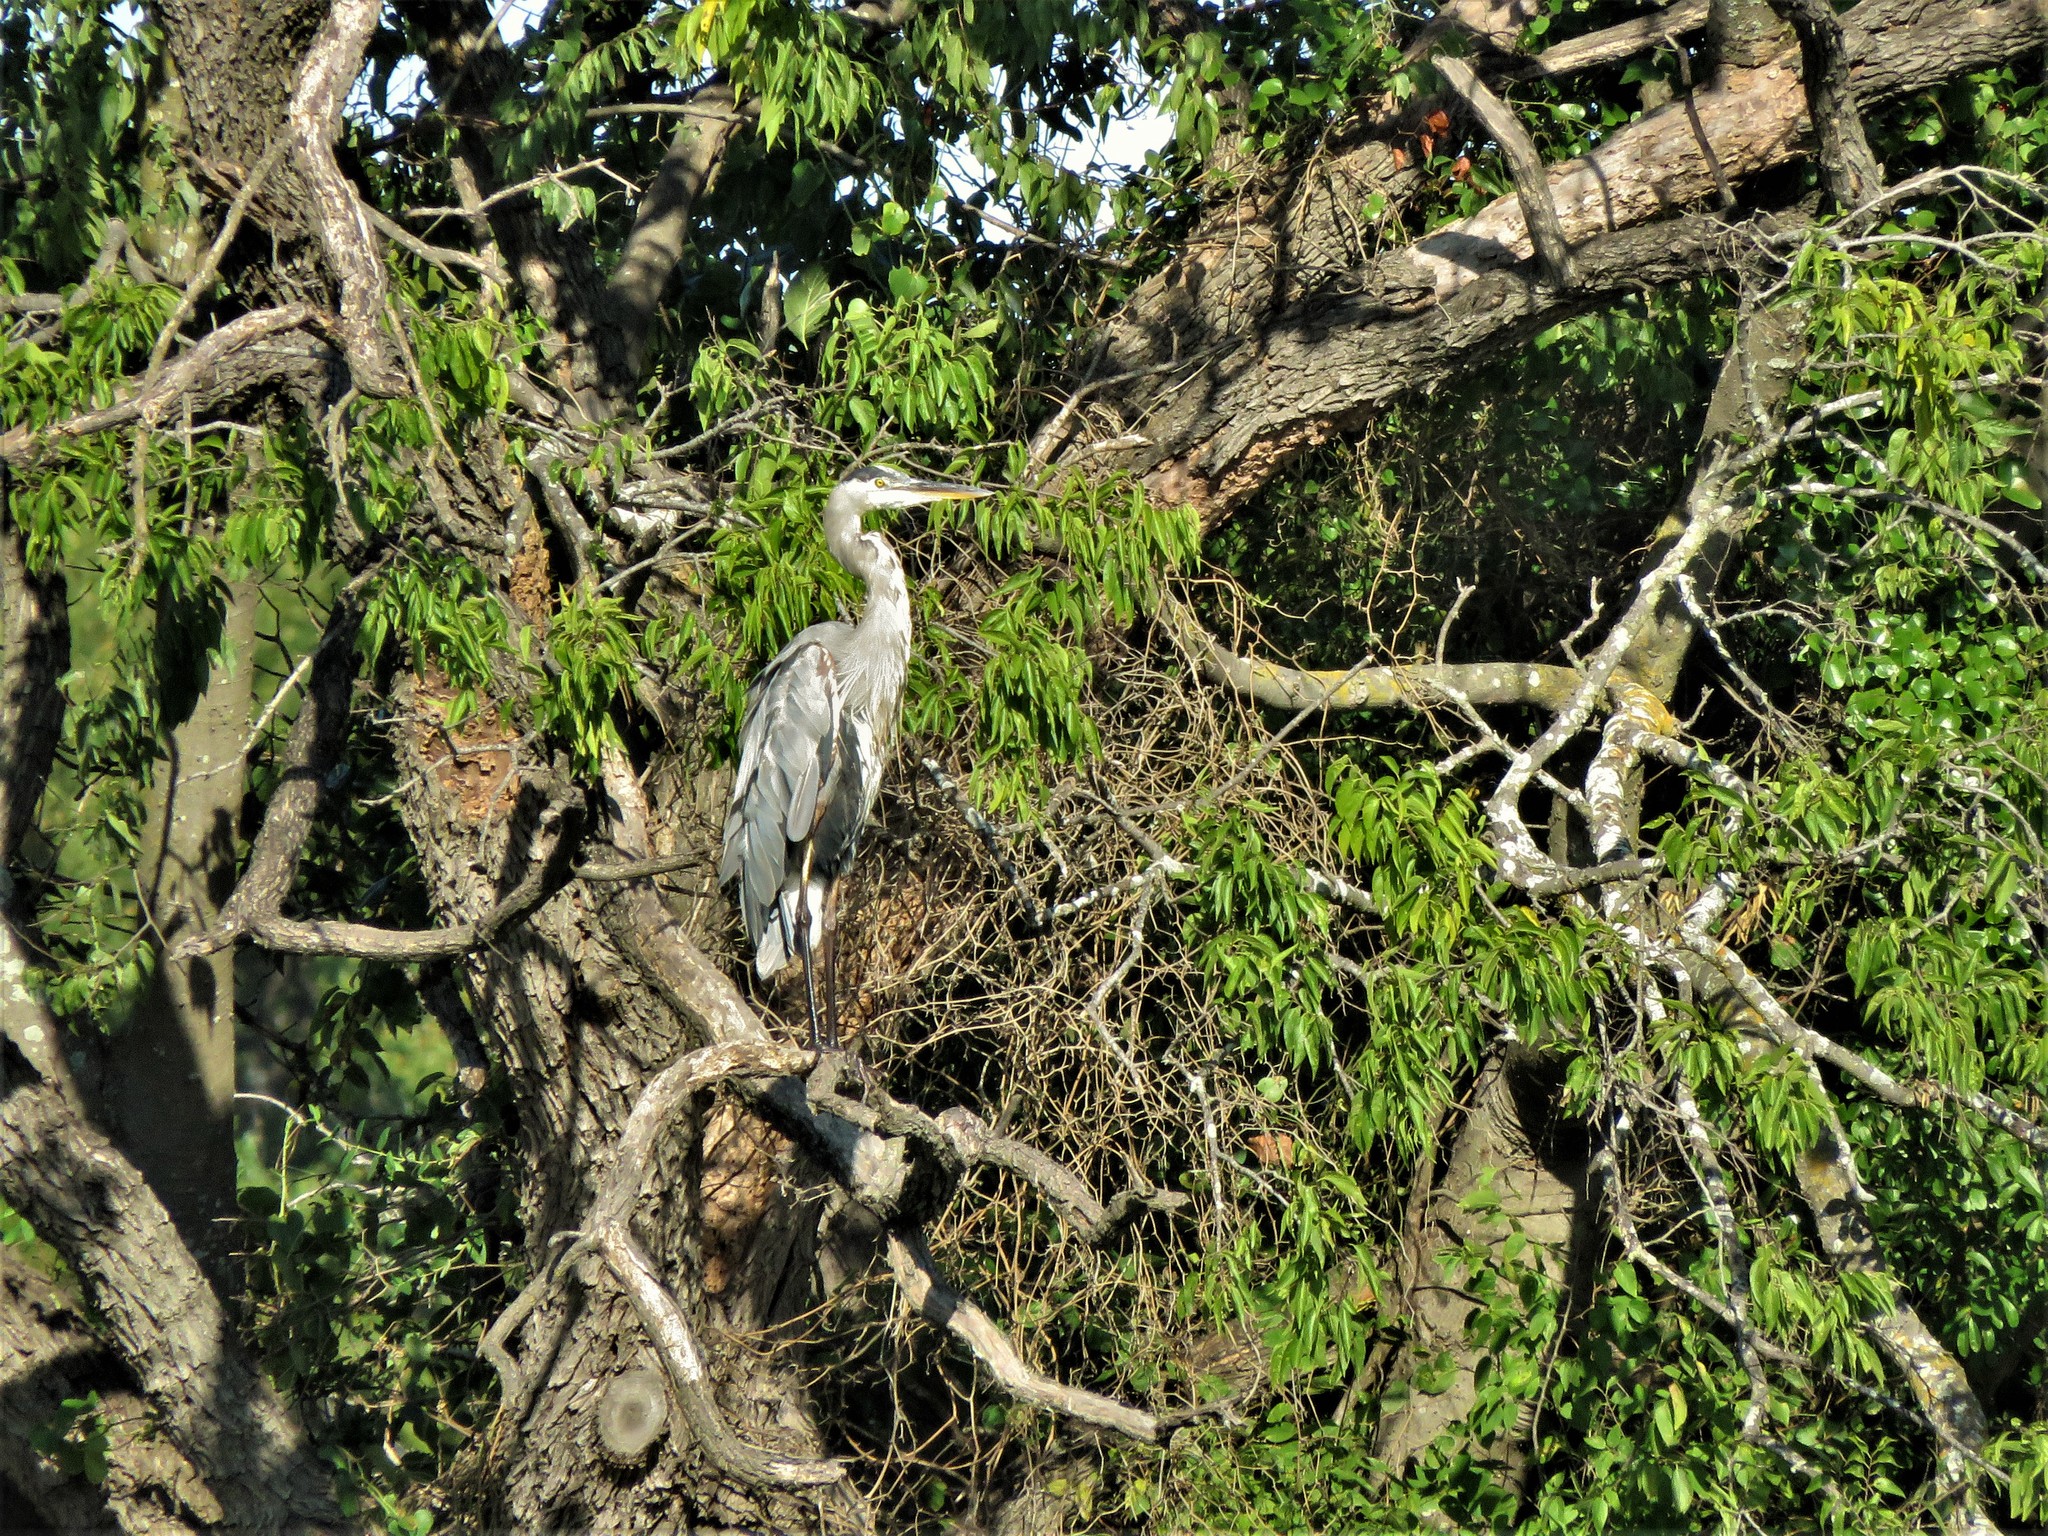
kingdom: Animalia
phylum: Chordata
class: Aves
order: Pelecaniformes
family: Ardeidae
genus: Ardea
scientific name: Ardea herodias
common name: Great blue heron
